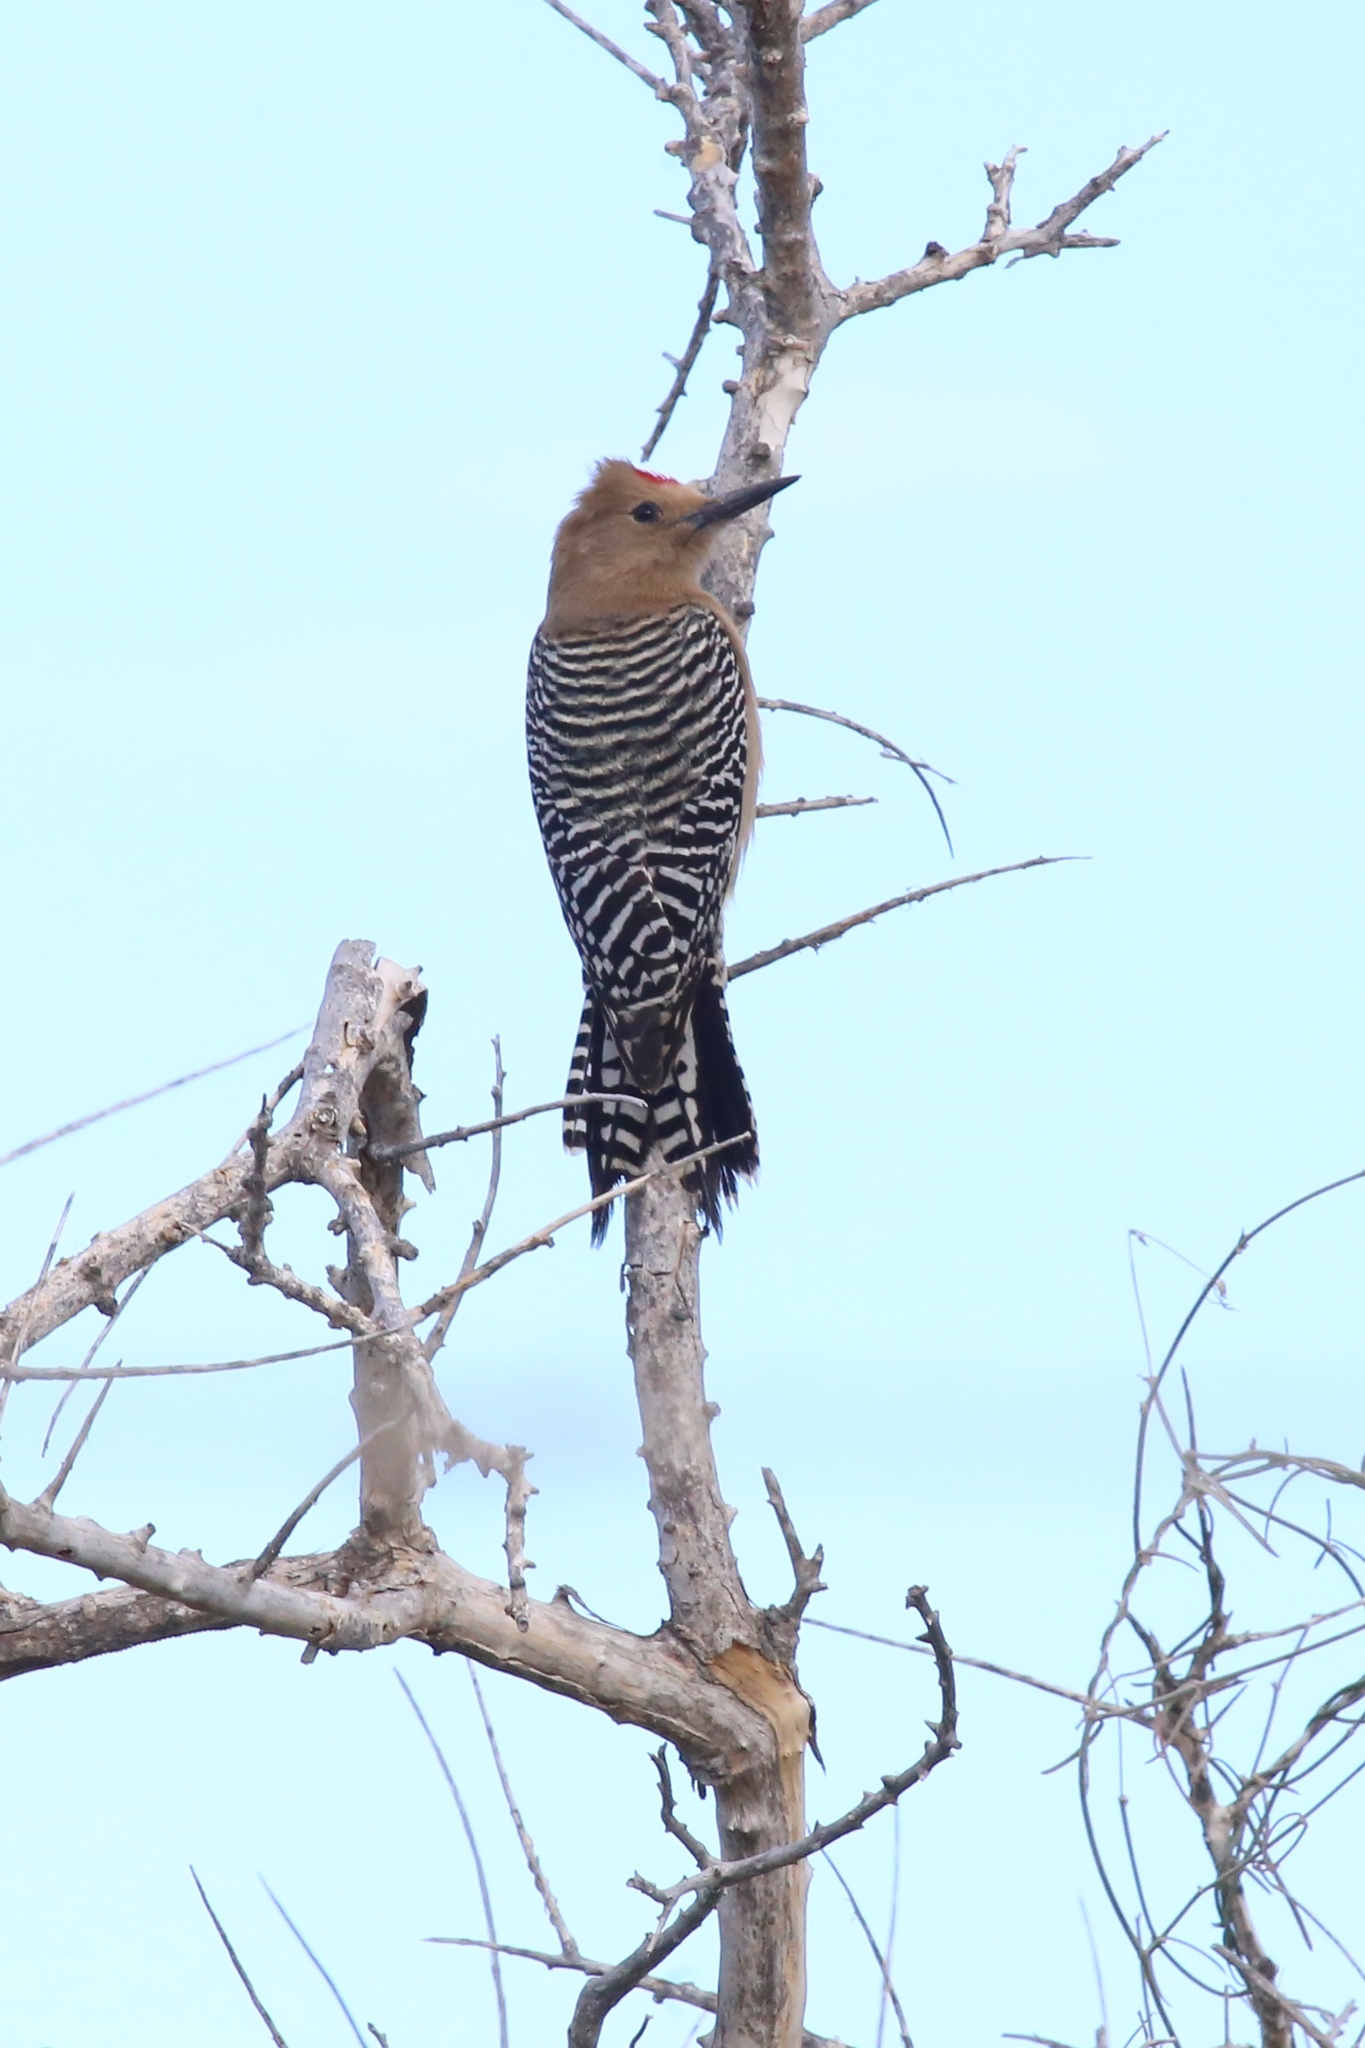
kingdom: Animalia
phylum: Chordata
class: Aves
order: Piciformes
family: Picidae
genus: Melanerpes
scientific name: Melanerpes uropygialis
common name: Gila woodpecker
